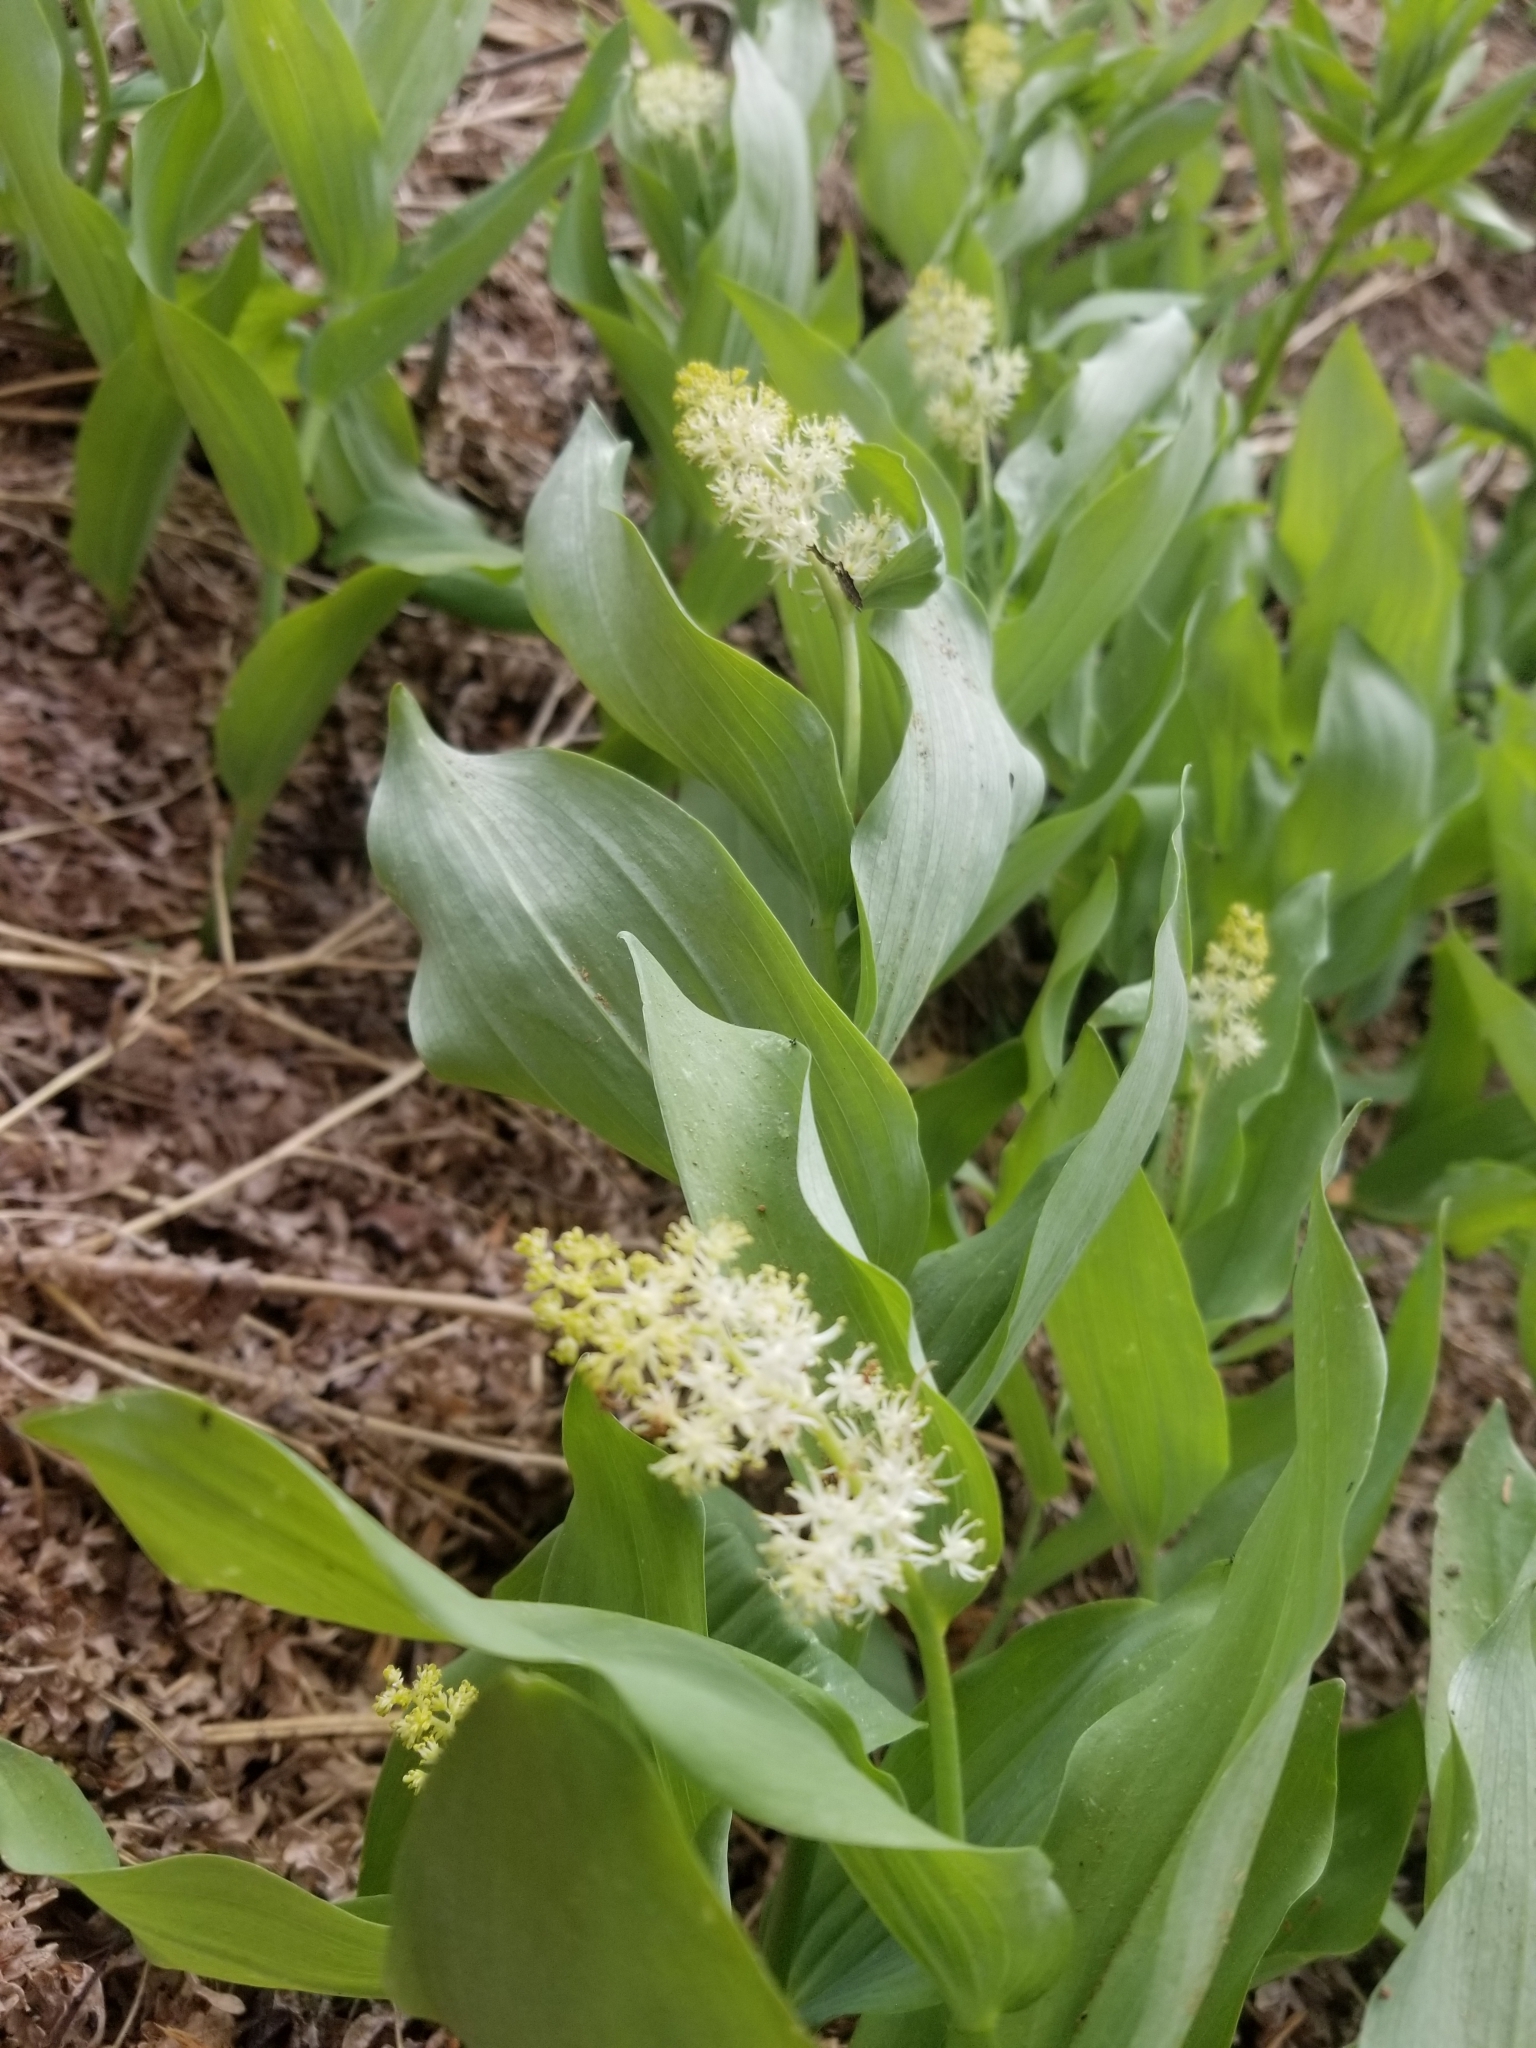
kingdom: Plantae
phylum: Tracheophyta
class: Liliopsida
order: Asparagales
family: Asparagaceae
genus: Maianthemum
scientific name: Maianthemum racemosum
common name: False spikenard
